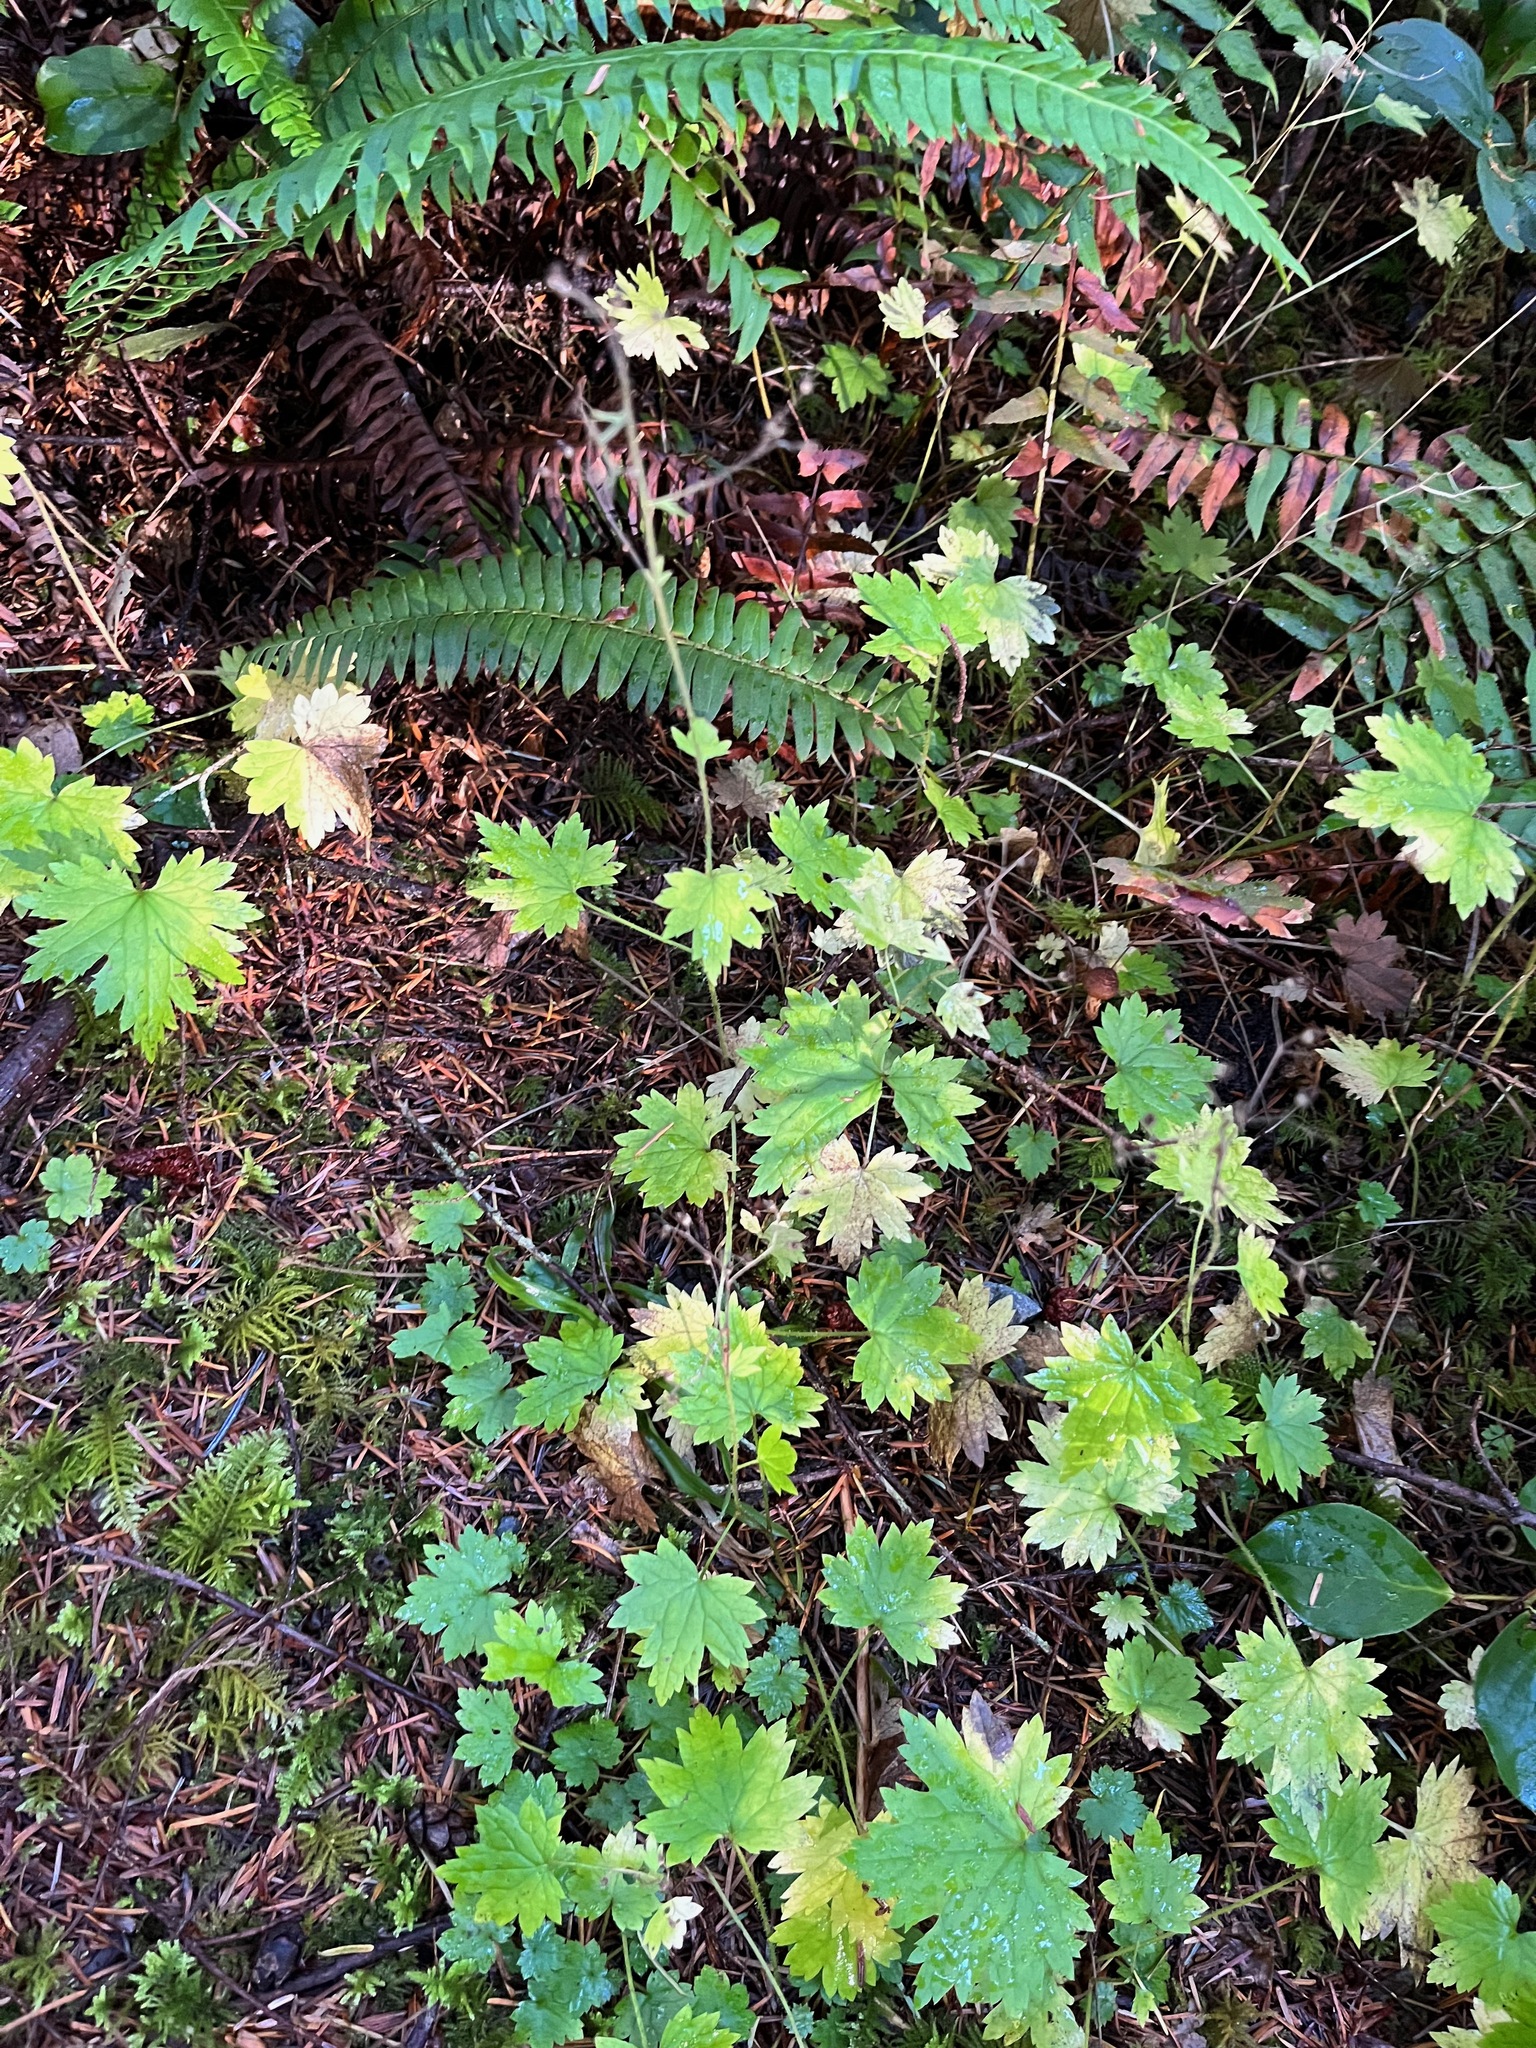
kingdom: Plantae
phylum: Tracheophyta
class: Magnoliopsida
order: Saxifragales
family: Saxifragaceae
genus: Boykinia
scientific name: Boykinia occidentalis
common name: Coast boykinia
